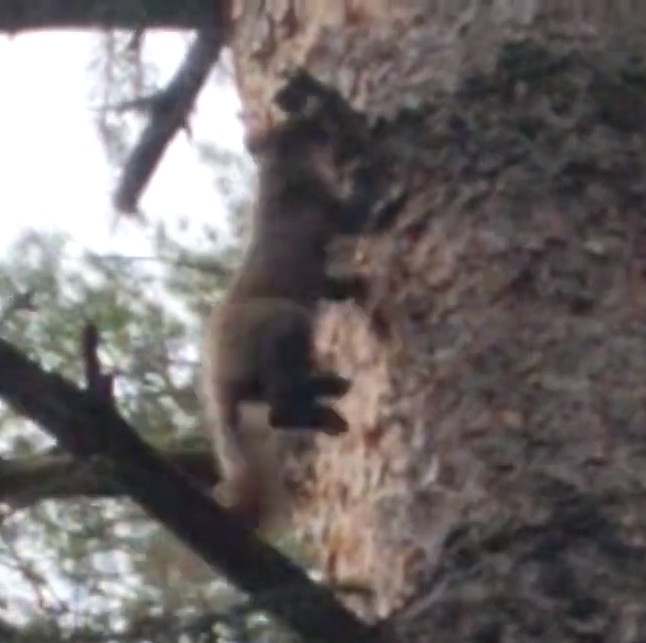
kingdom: Animalia
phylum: Chordata
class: Mammalia
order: Carnivora
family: Mustelidae
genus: Martes
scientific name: Martes martes
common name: European pine marten
